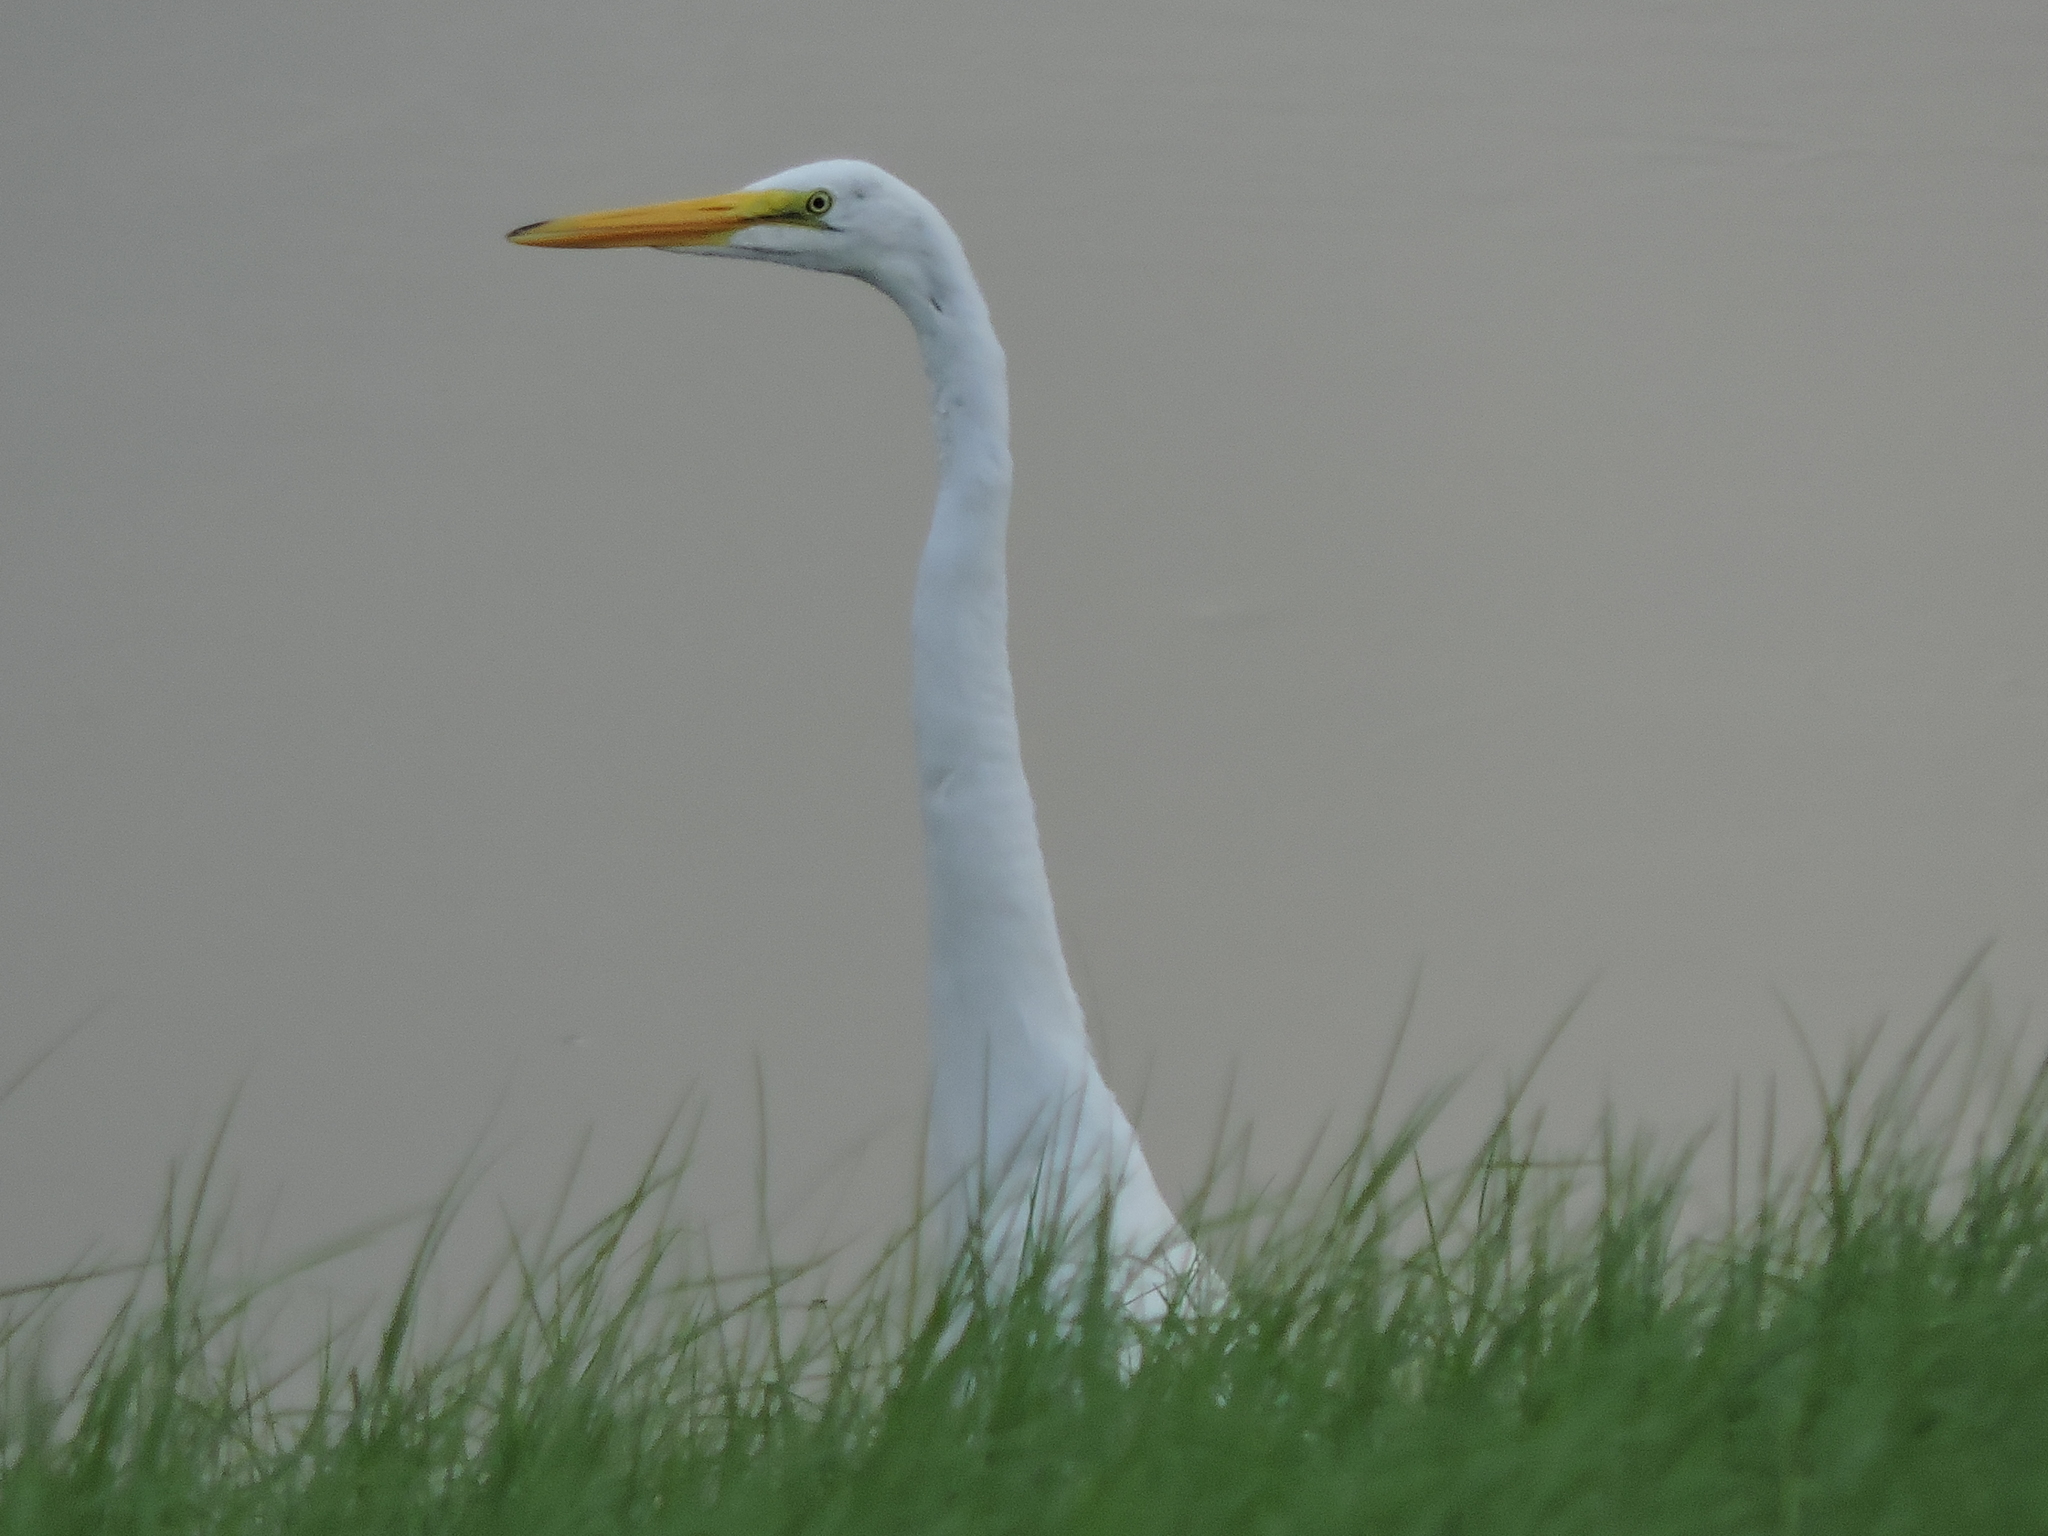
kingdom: Animalia
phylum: Chordata
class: Aves
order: Pelecaniformes
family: Ardeidae
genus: Ardea
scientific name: Ardea alba
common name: Great egret
